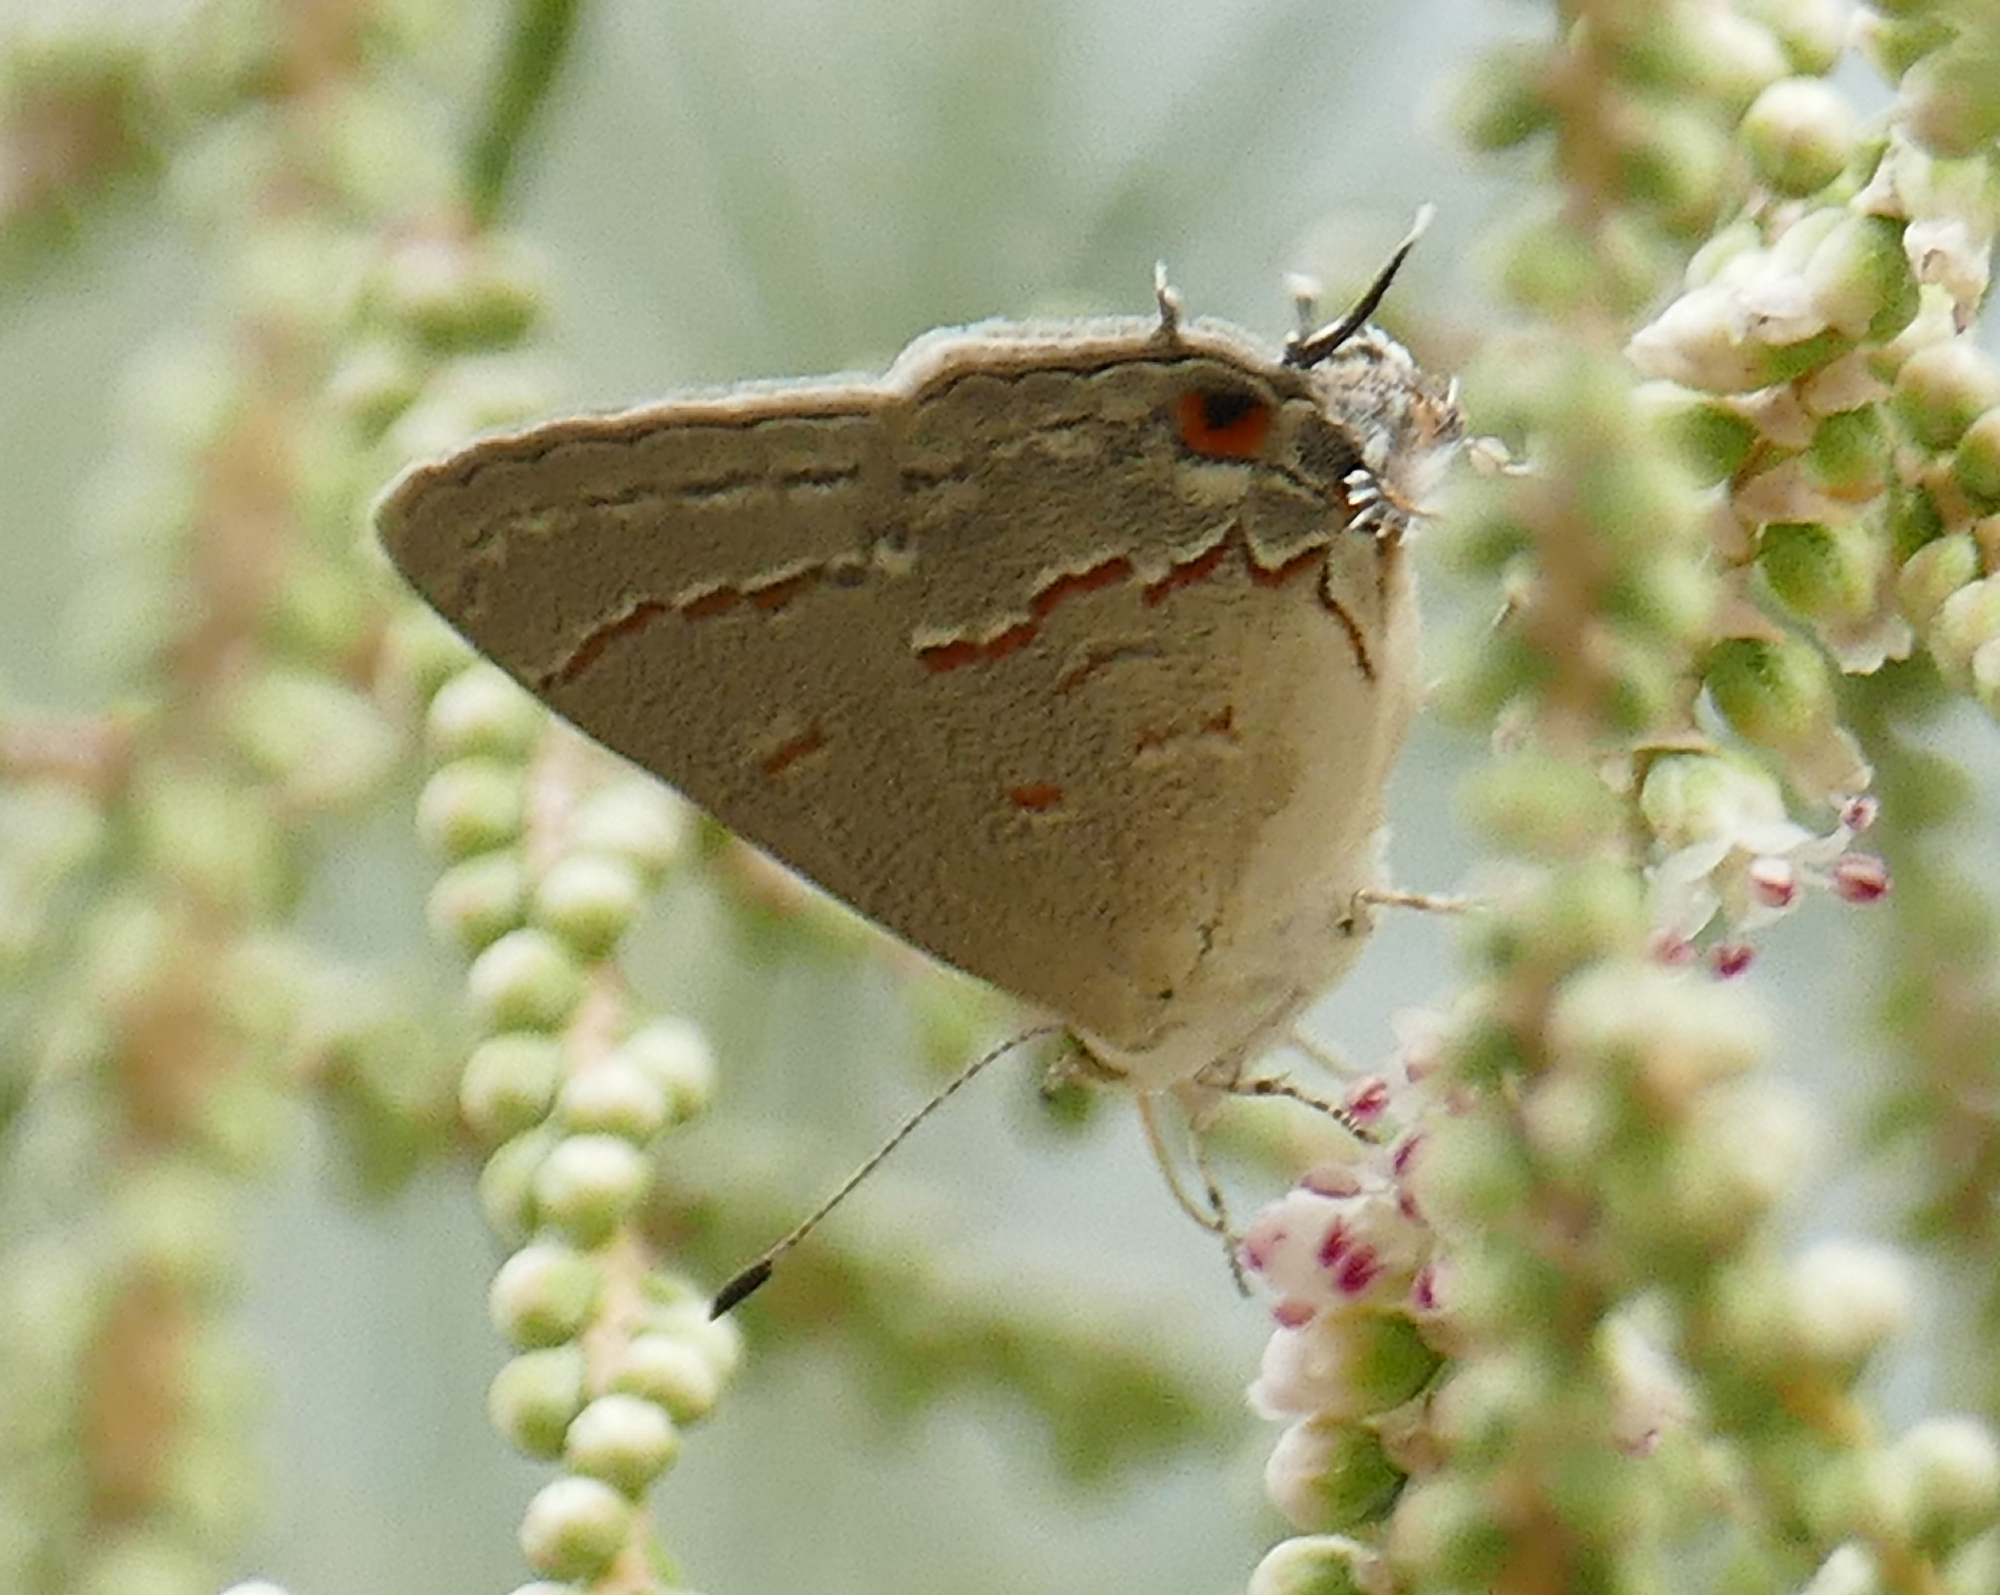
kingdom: Animalia
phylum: Arthropoda
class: Insecta
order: Lepidoptera
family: Lycaenidae
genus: Ministrymon
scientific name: Ministrymon leda
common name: Leda ministreak
